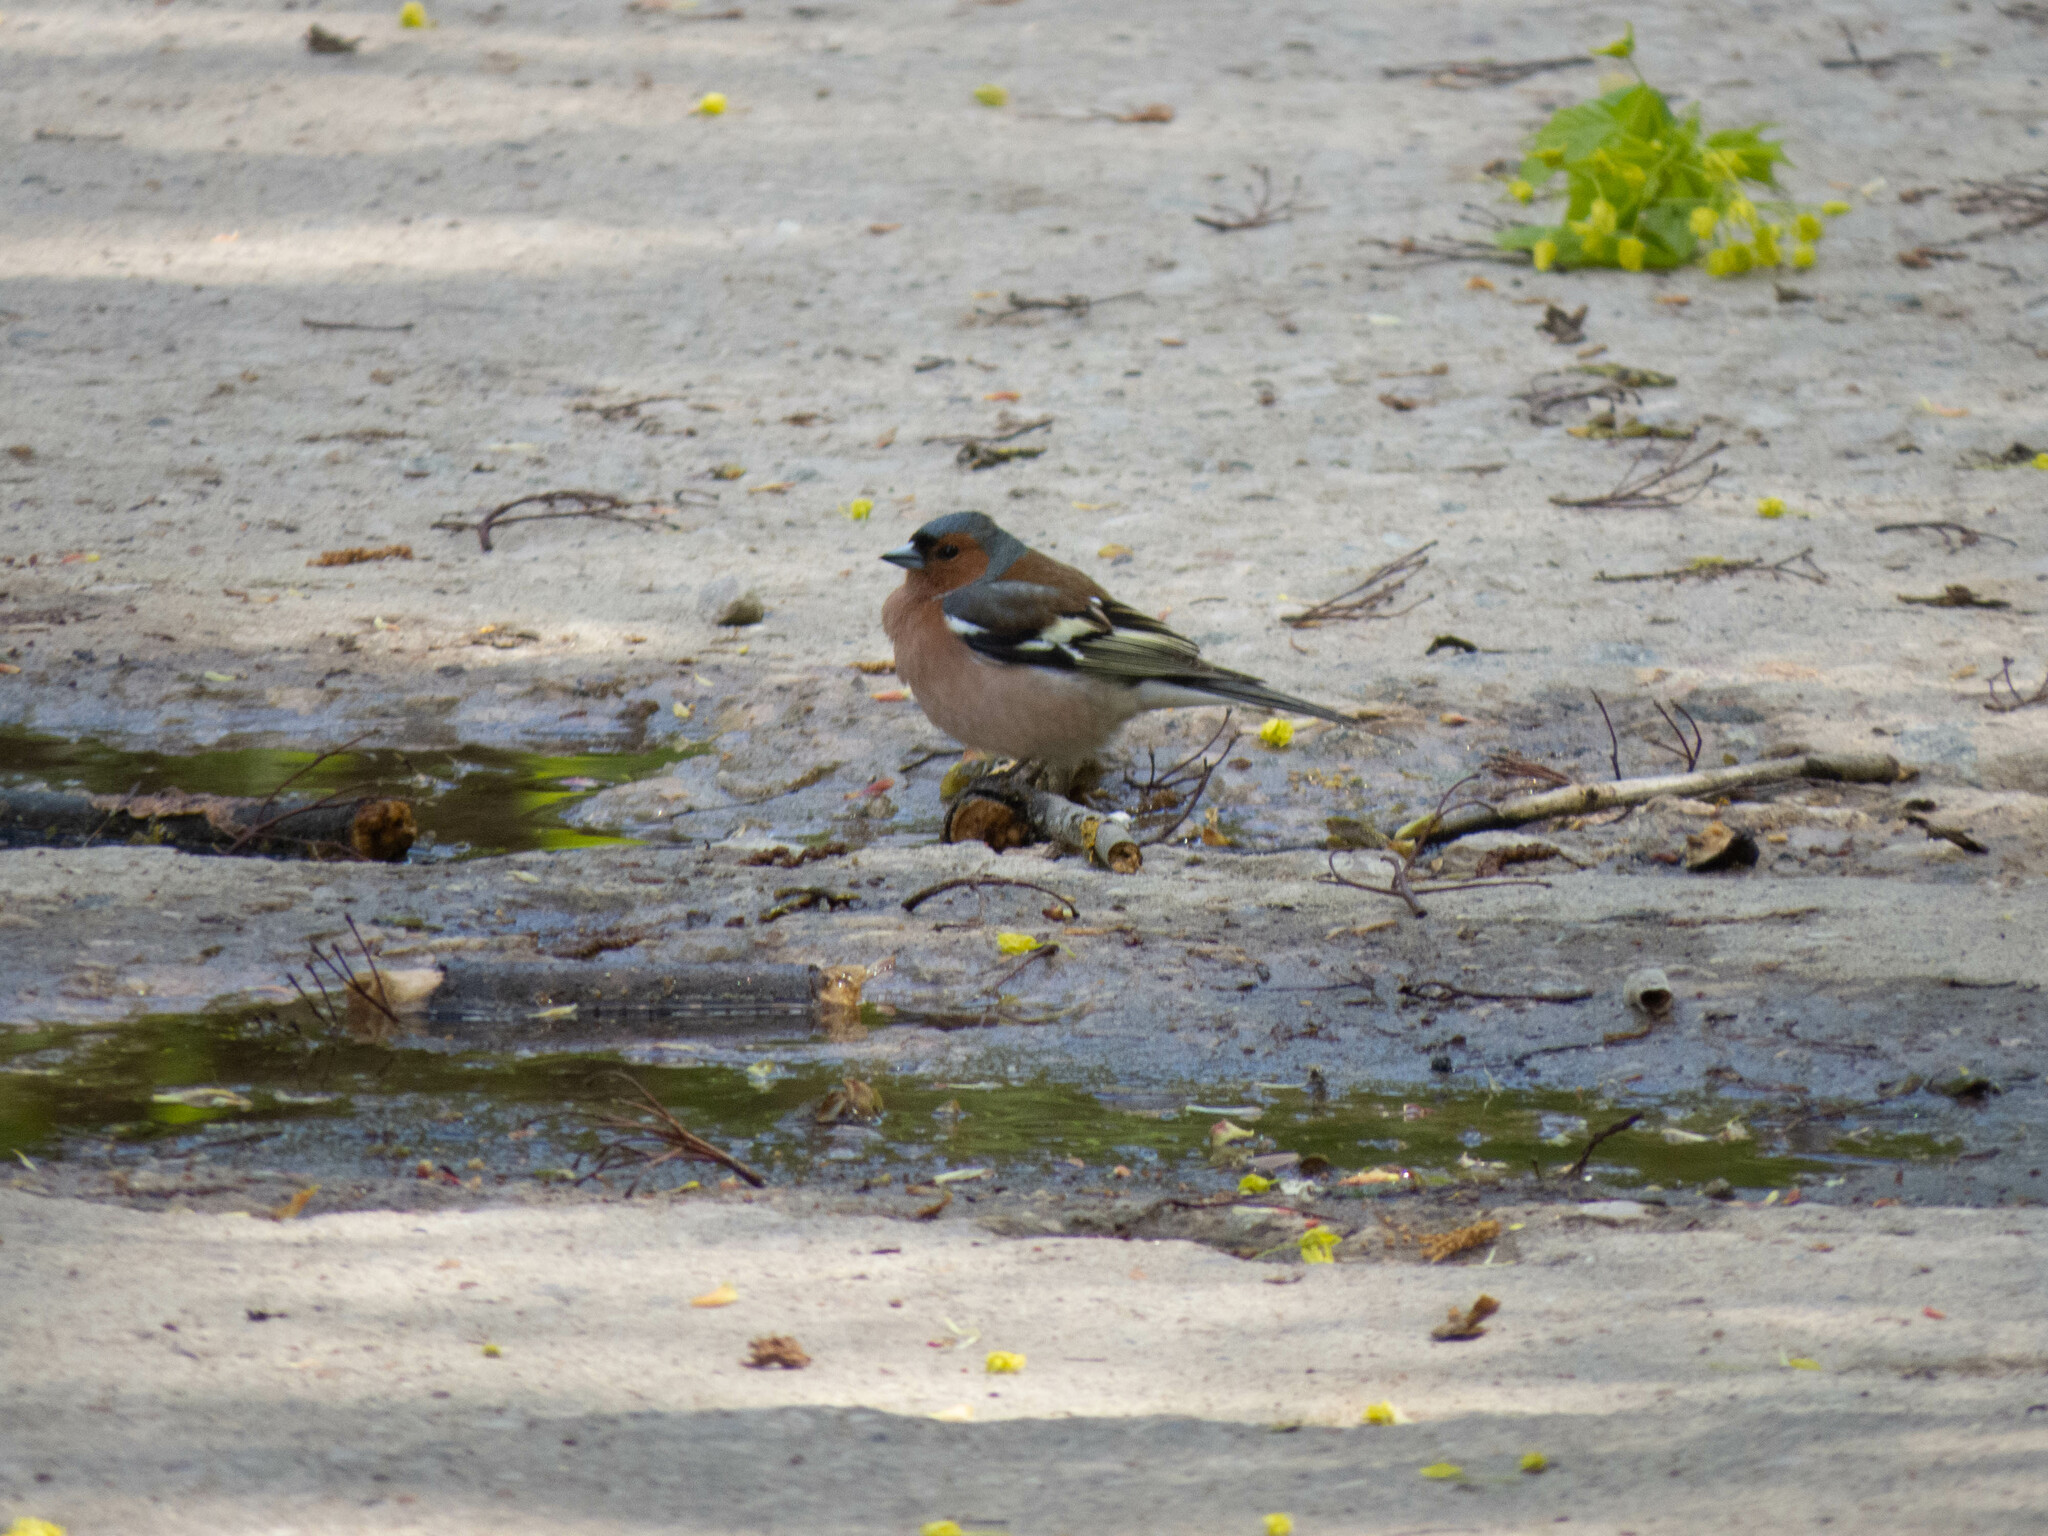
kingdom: Animalia
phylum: Chordata
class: Aves
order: Passeriformes
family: Fringillidae
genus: Fringilla
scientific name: Fringilla coelebs
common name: Common chaffinch
